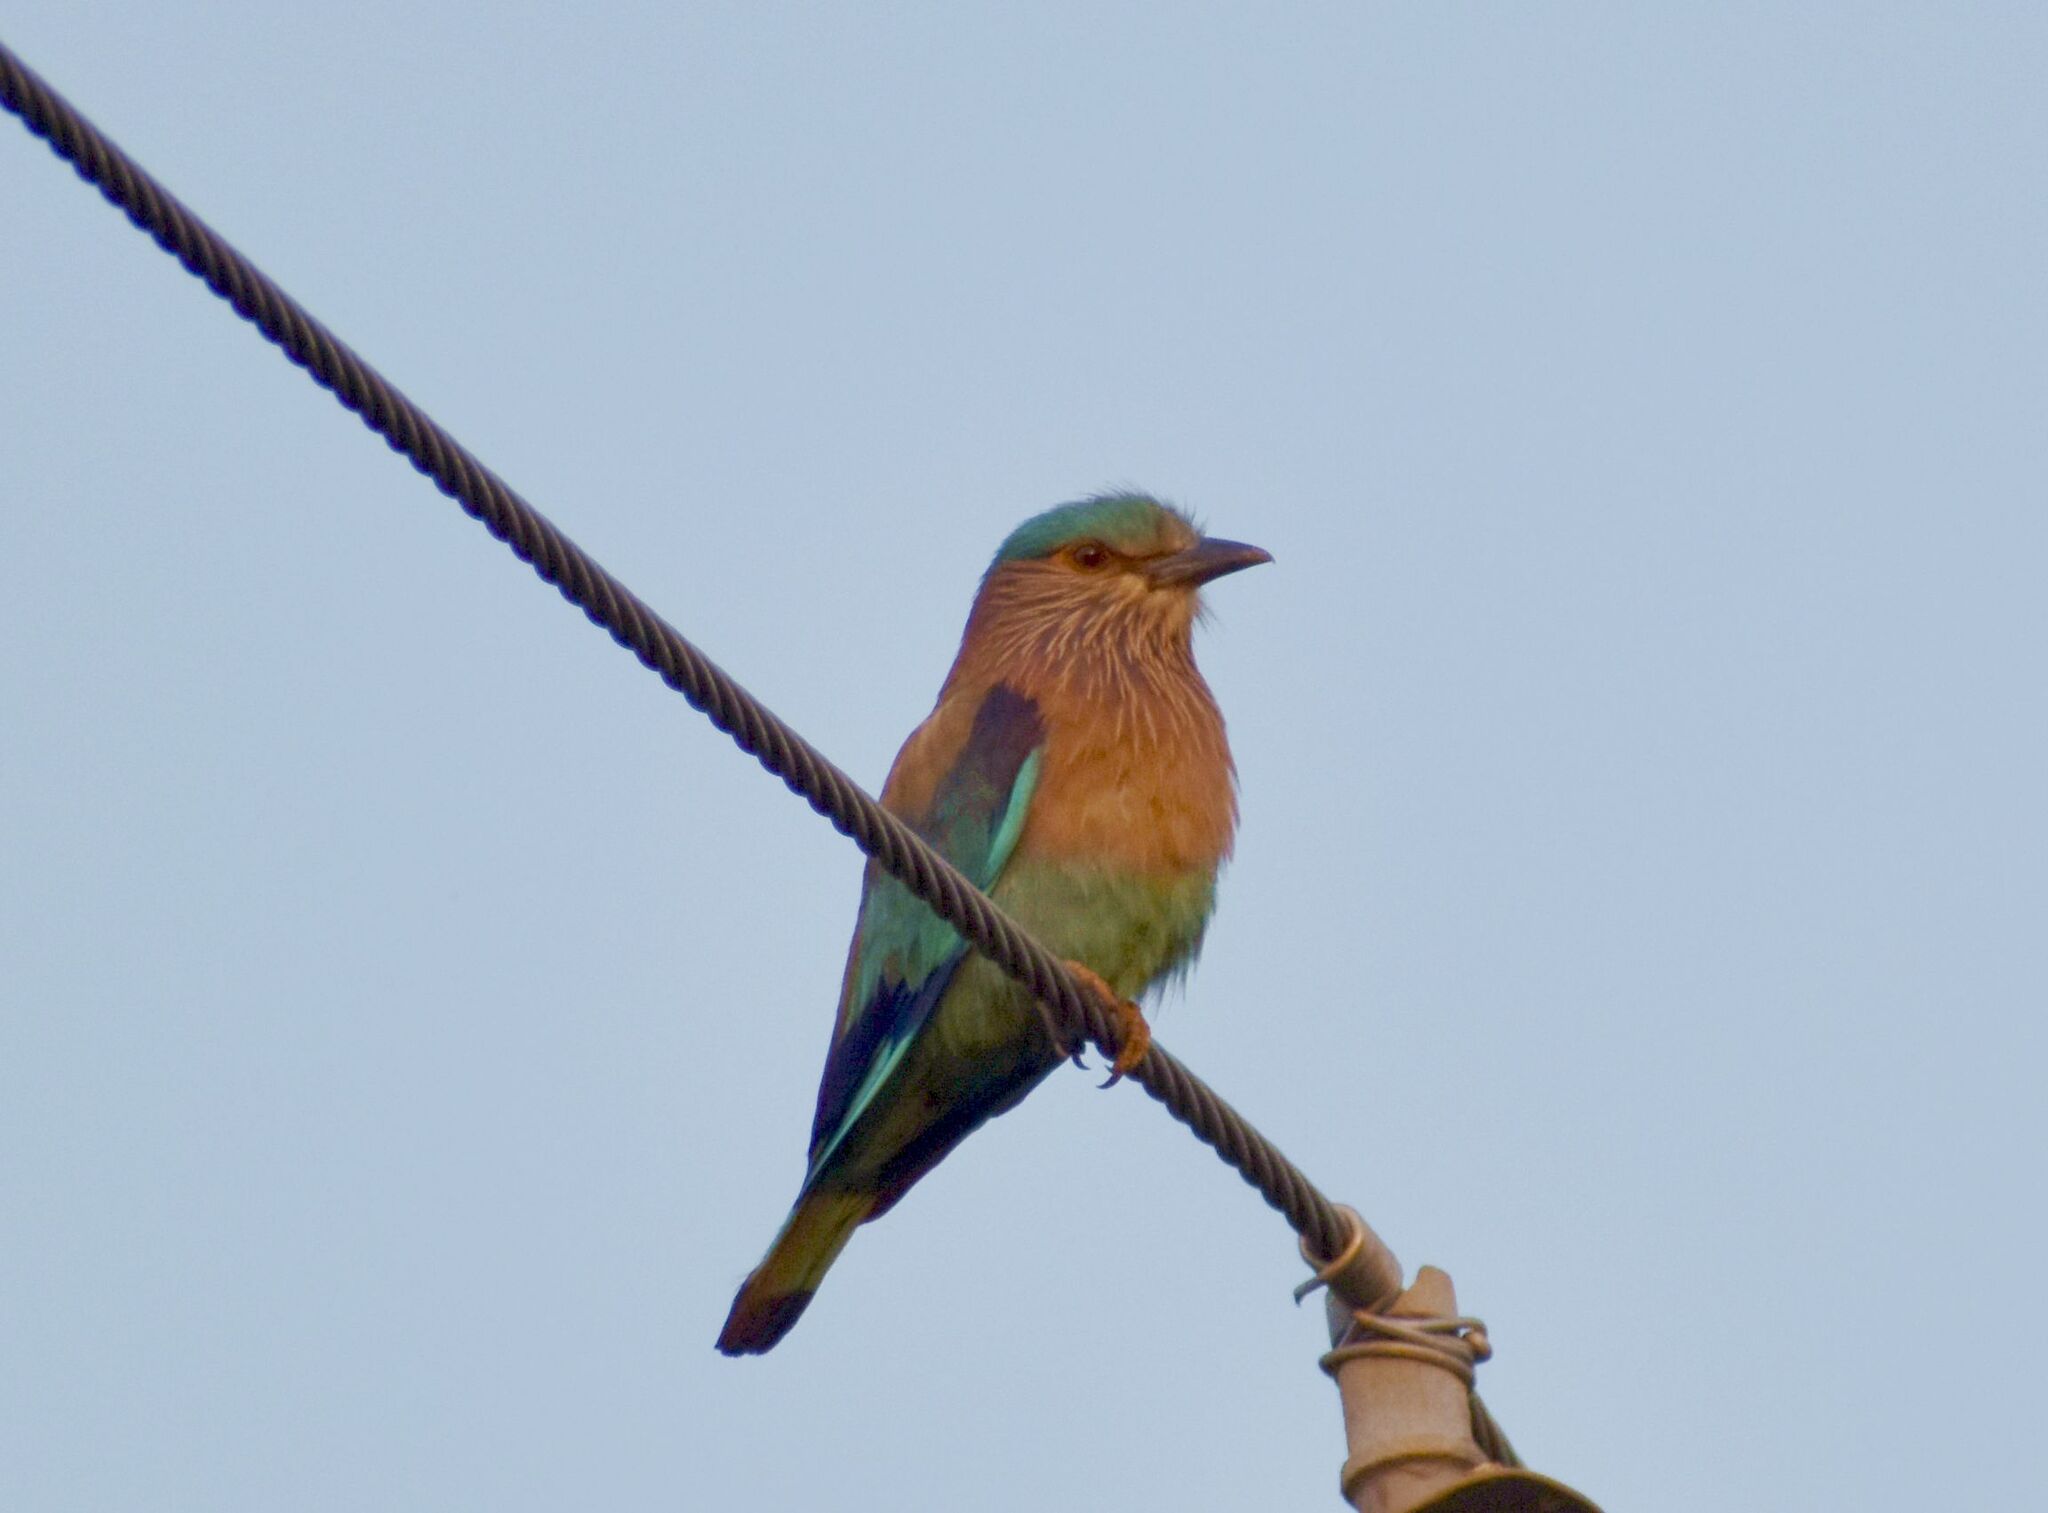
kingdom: Animalia
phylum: Chordata
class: Aves
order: Coraciiformes
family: Coraciidae
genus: Coracias
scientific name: Coracias benghalensis
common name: Indian roller
